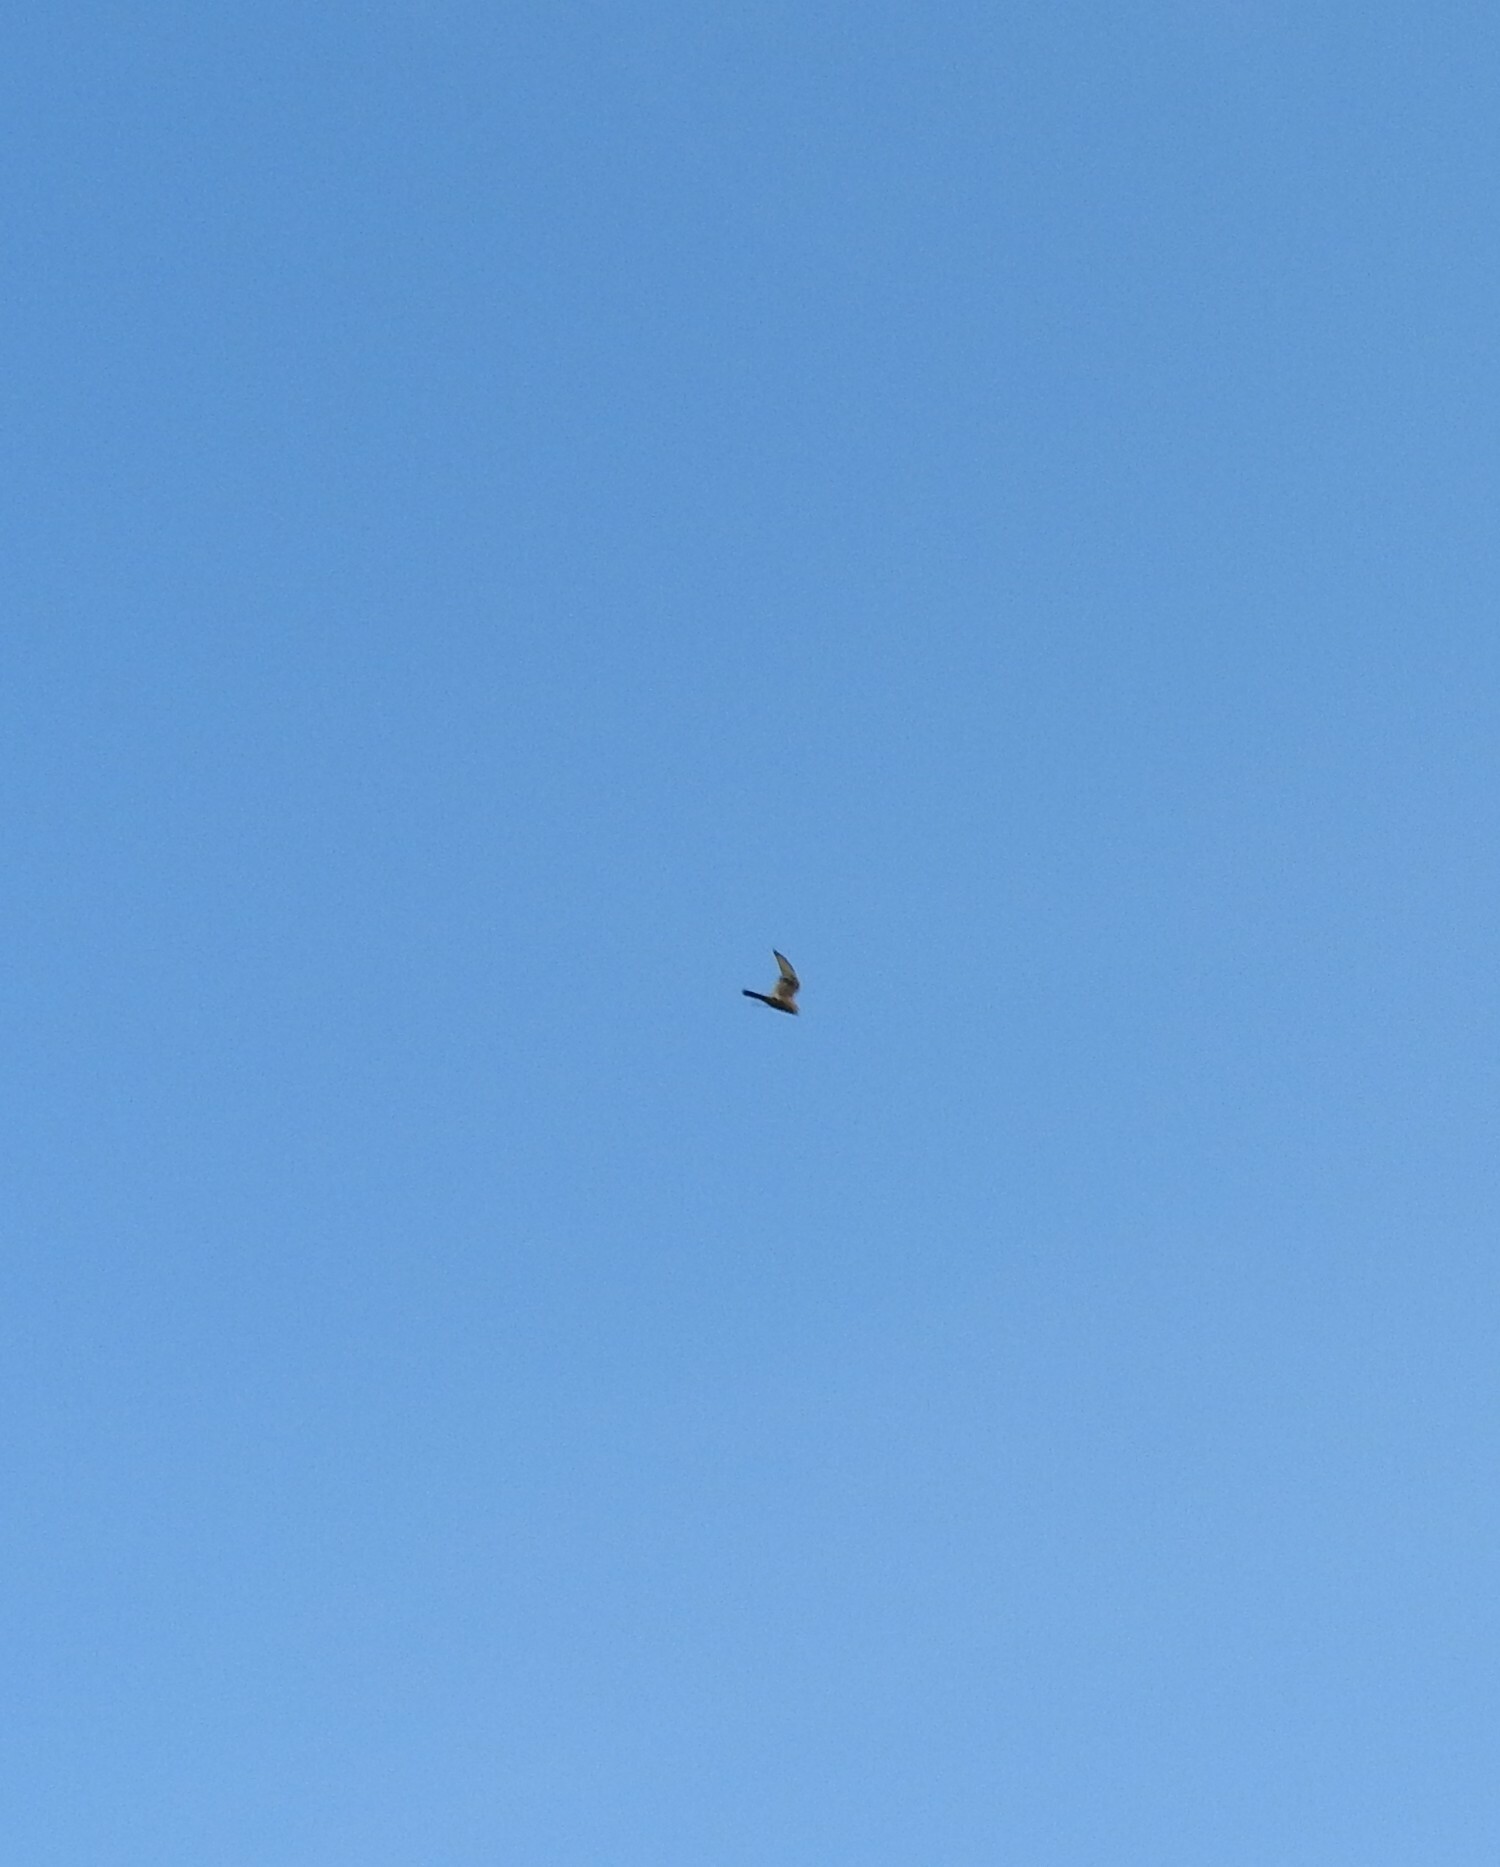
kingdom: Animalia
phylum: Chordata
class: Aves
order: Falconiformes
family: Falconidae
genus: Falco
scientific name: Falco sparverius
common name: American kestrel
